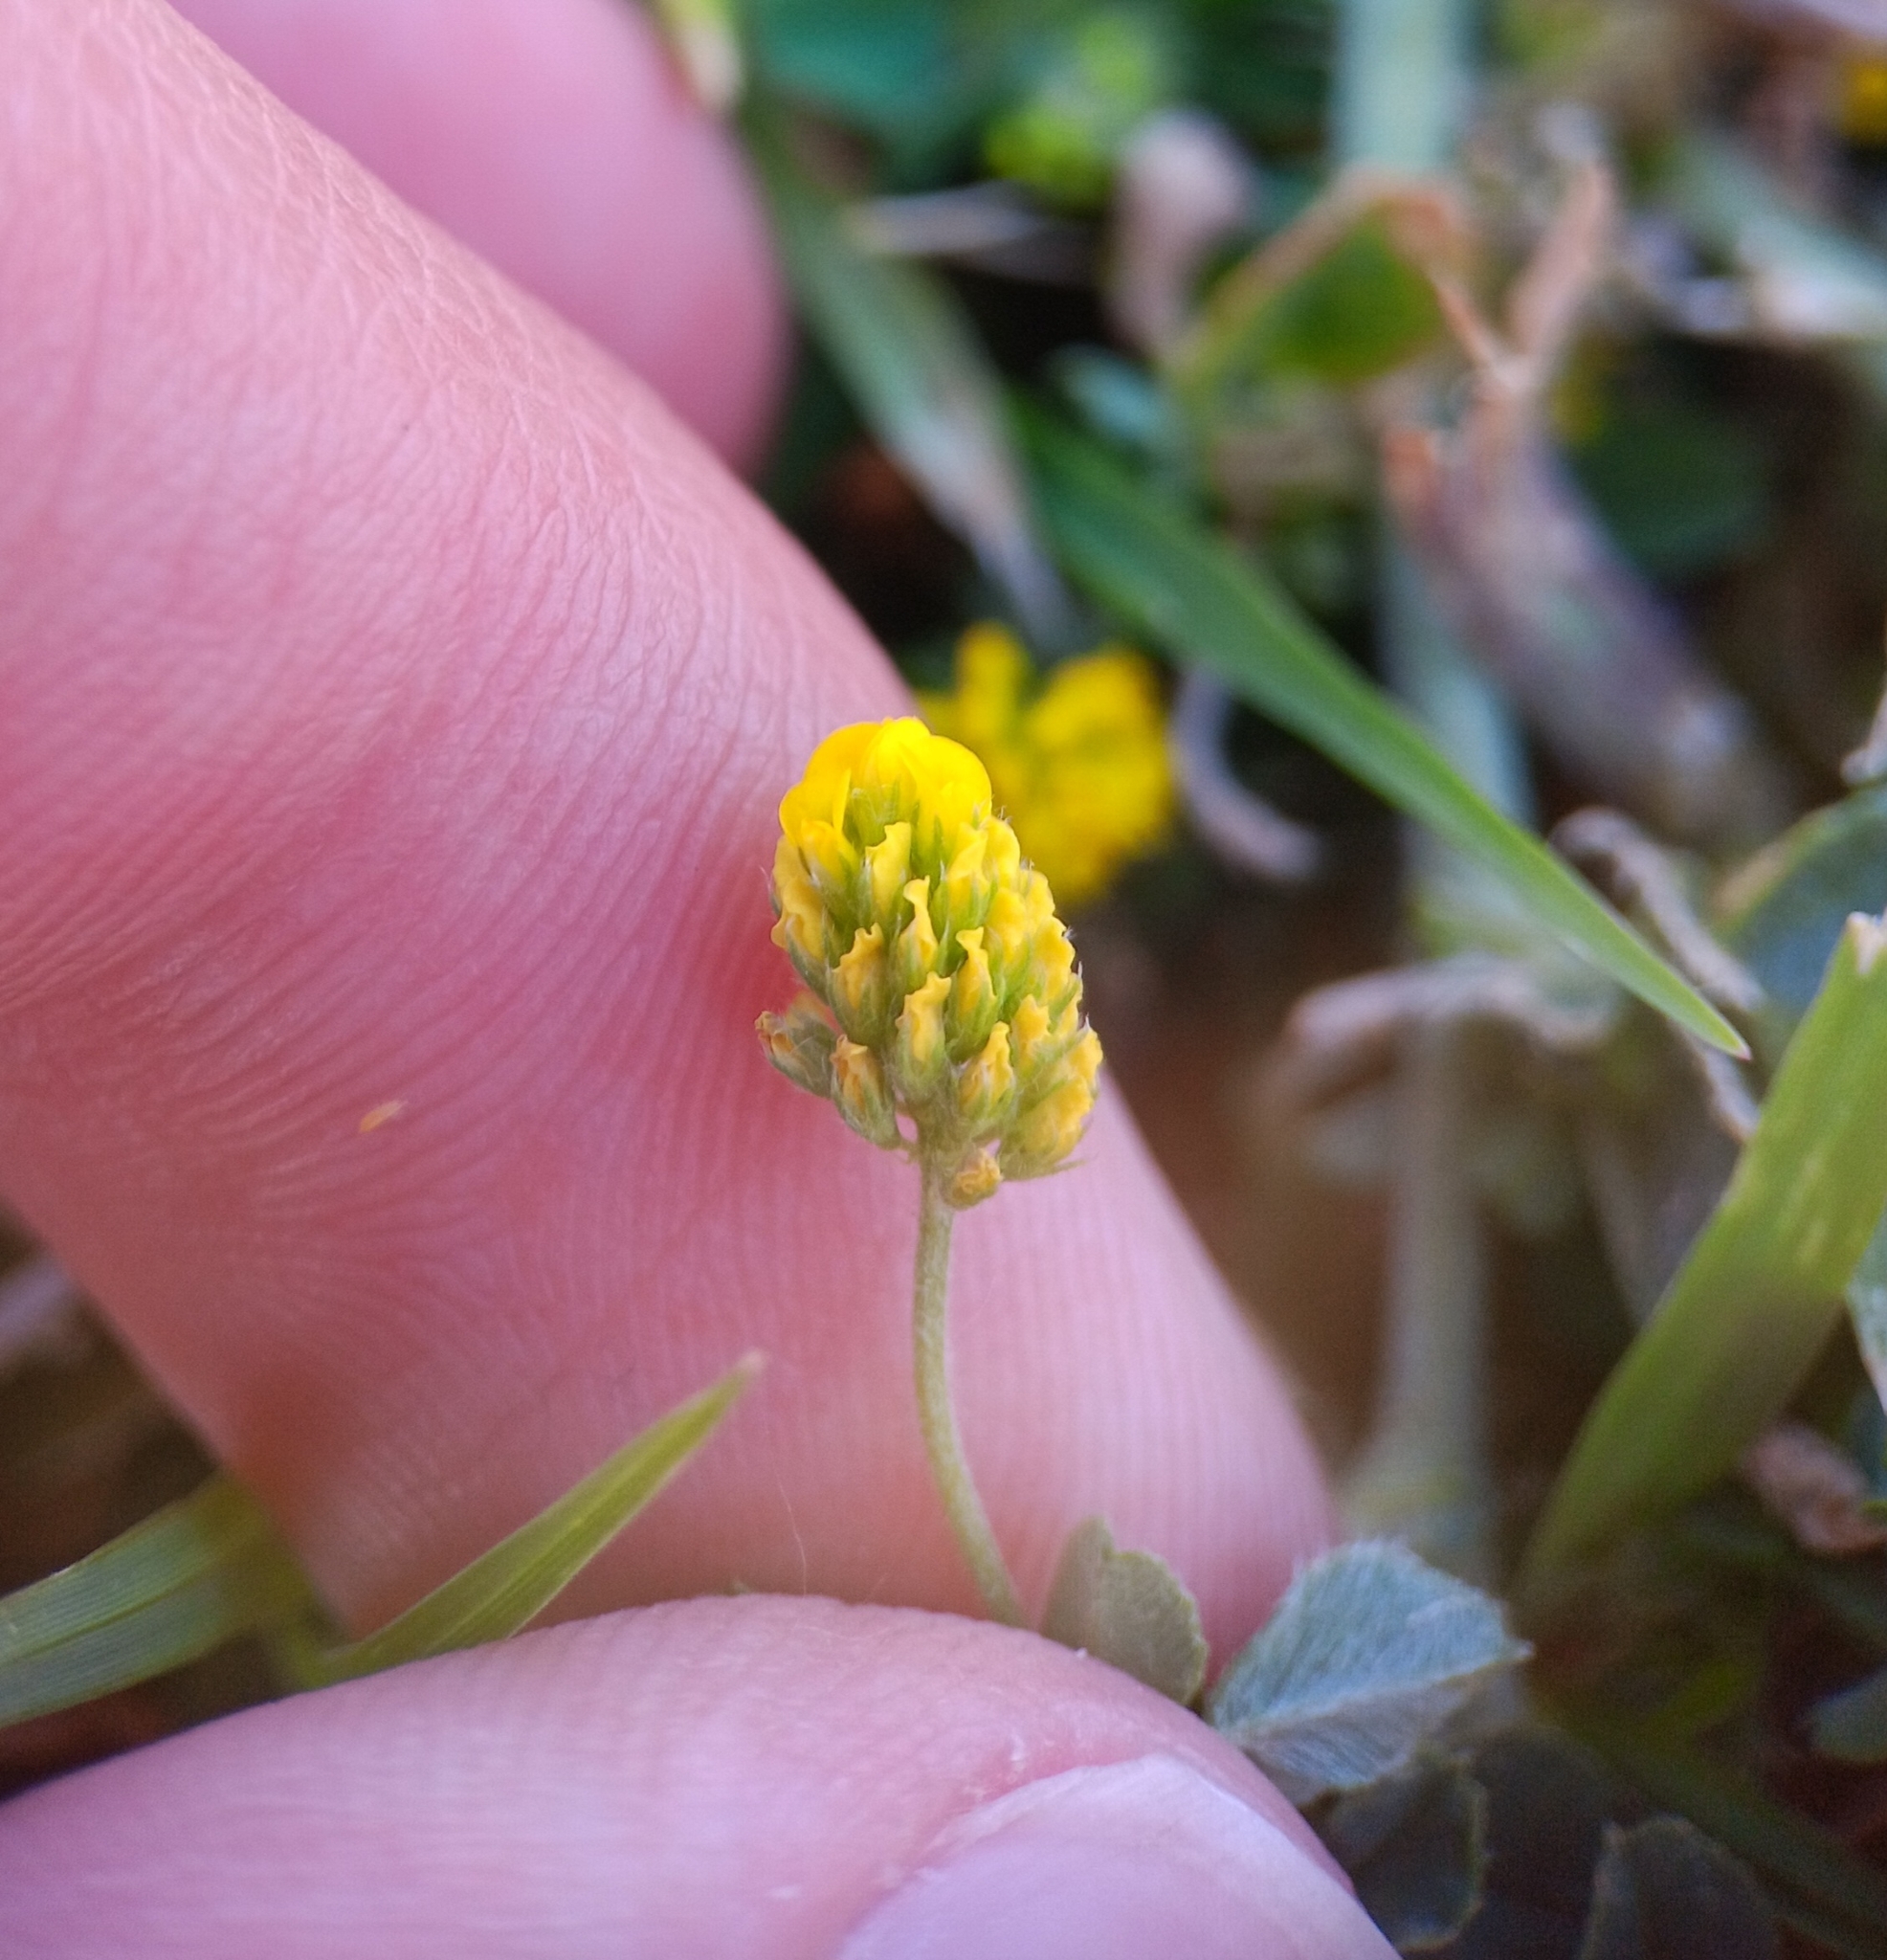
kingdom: Plantae
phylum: Tracheophyta
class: Magnoliopsida
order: Fabales
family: Fabaceae
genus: Medicago
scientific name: Medicago lupulina
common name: Black medick
